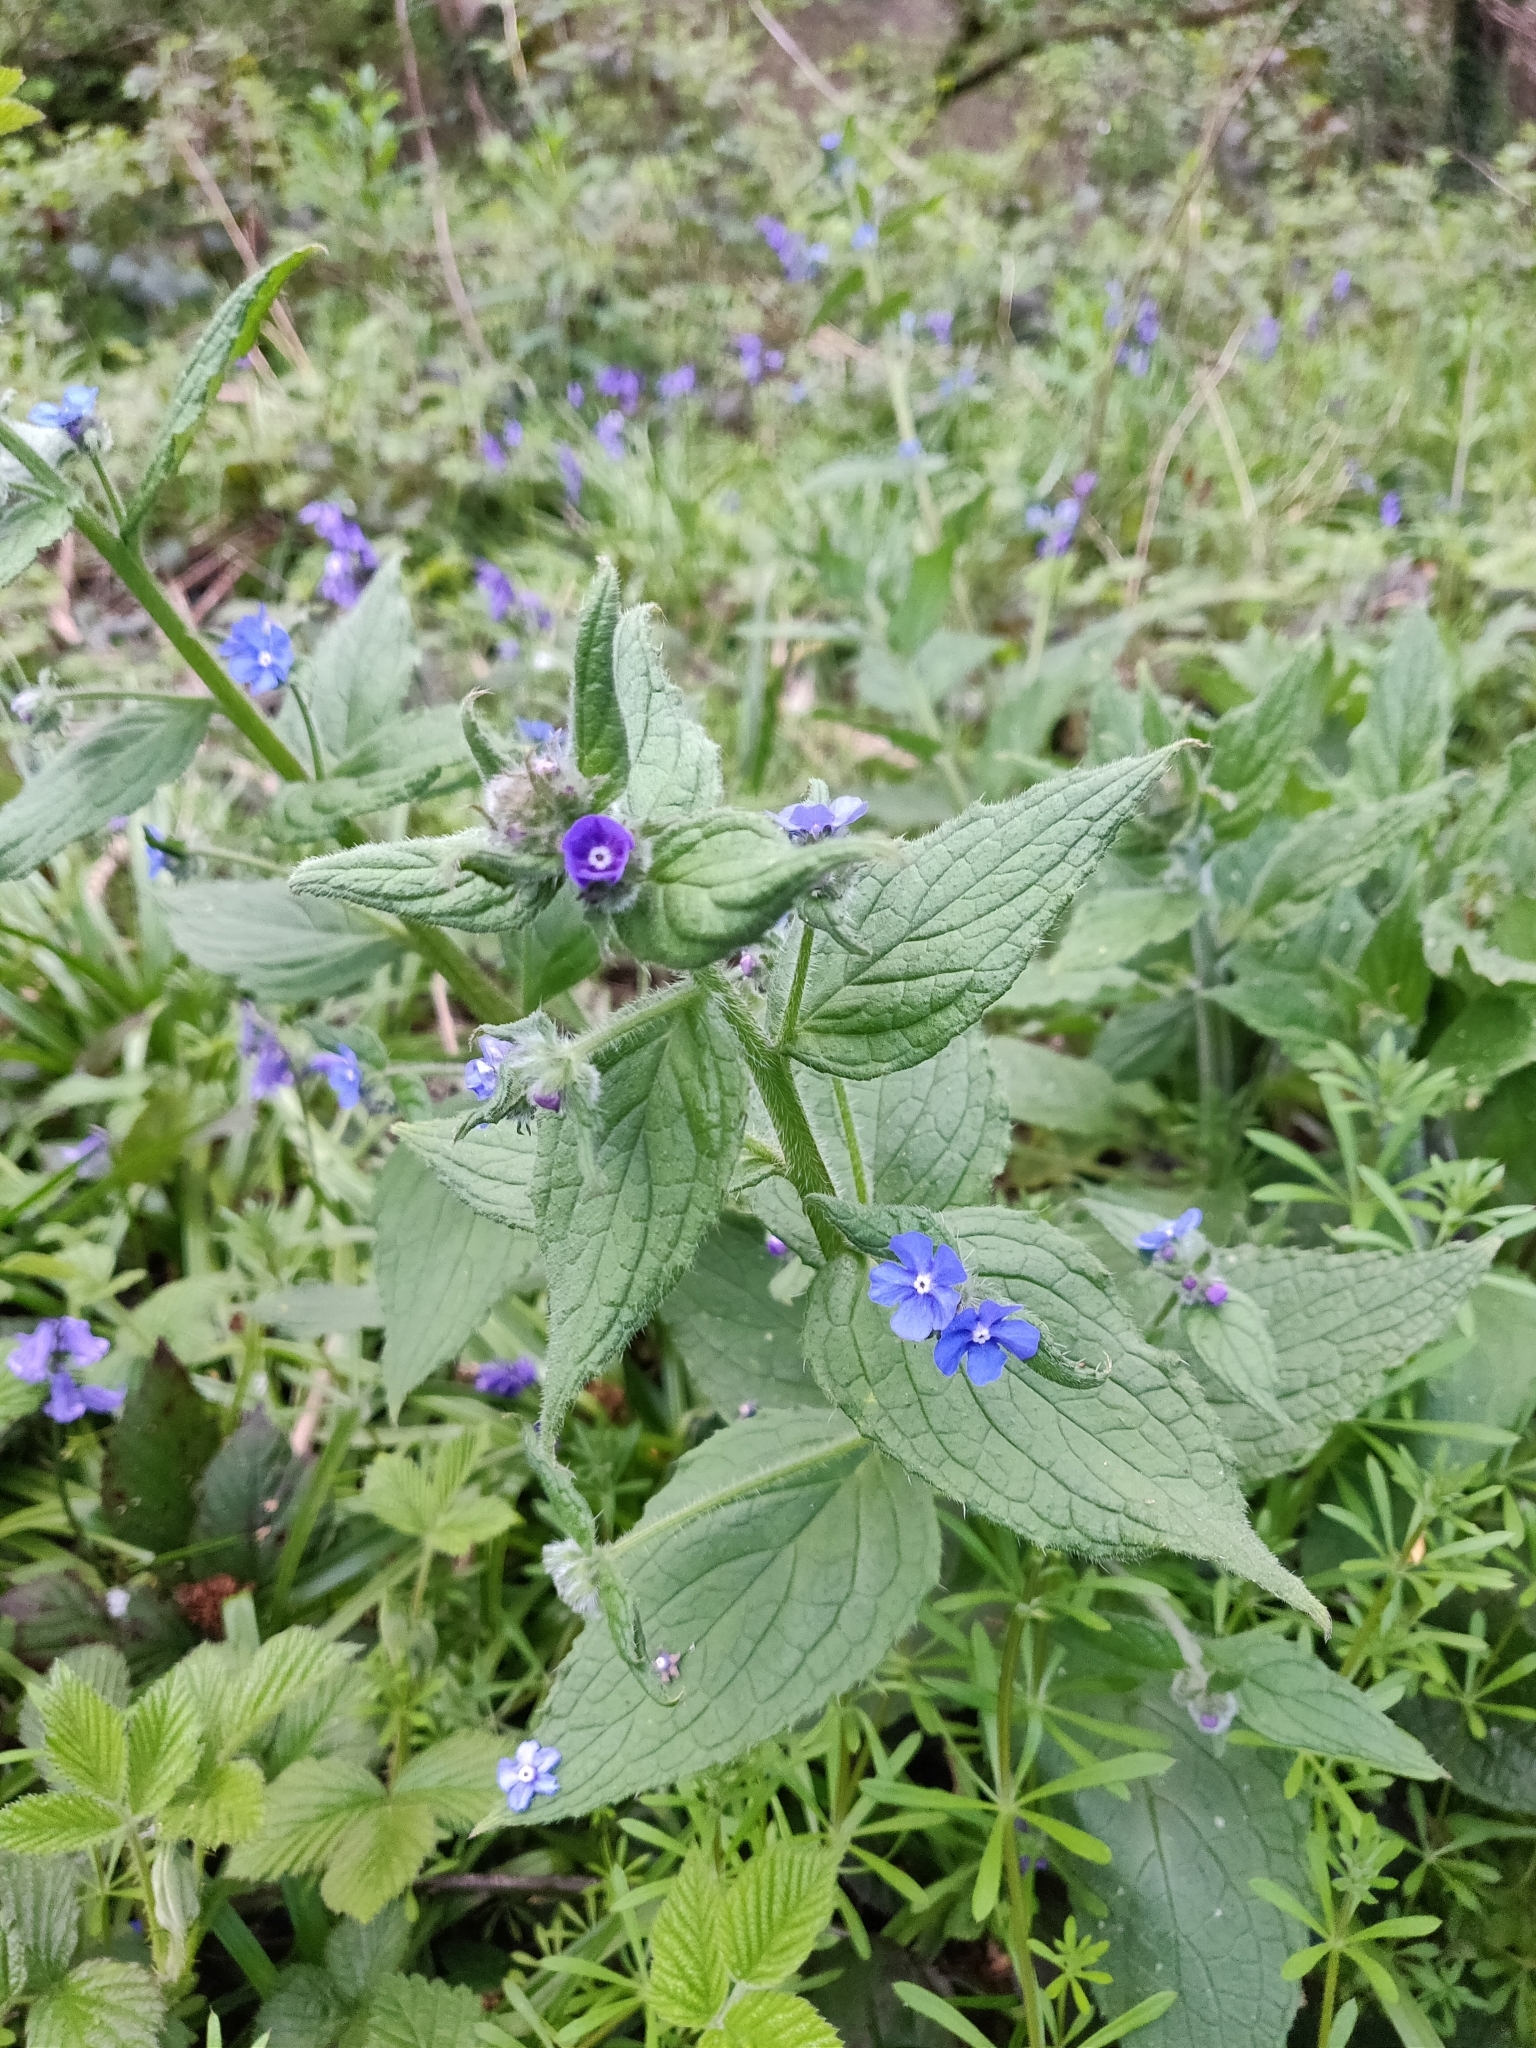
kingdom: Plantae
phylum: Tracheophyta
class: Magnoliopsida
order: Boraginales
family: Boraginaceae
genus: Pentaglottis
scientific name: Pentaglottis sempervirens
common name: Green alkanet
